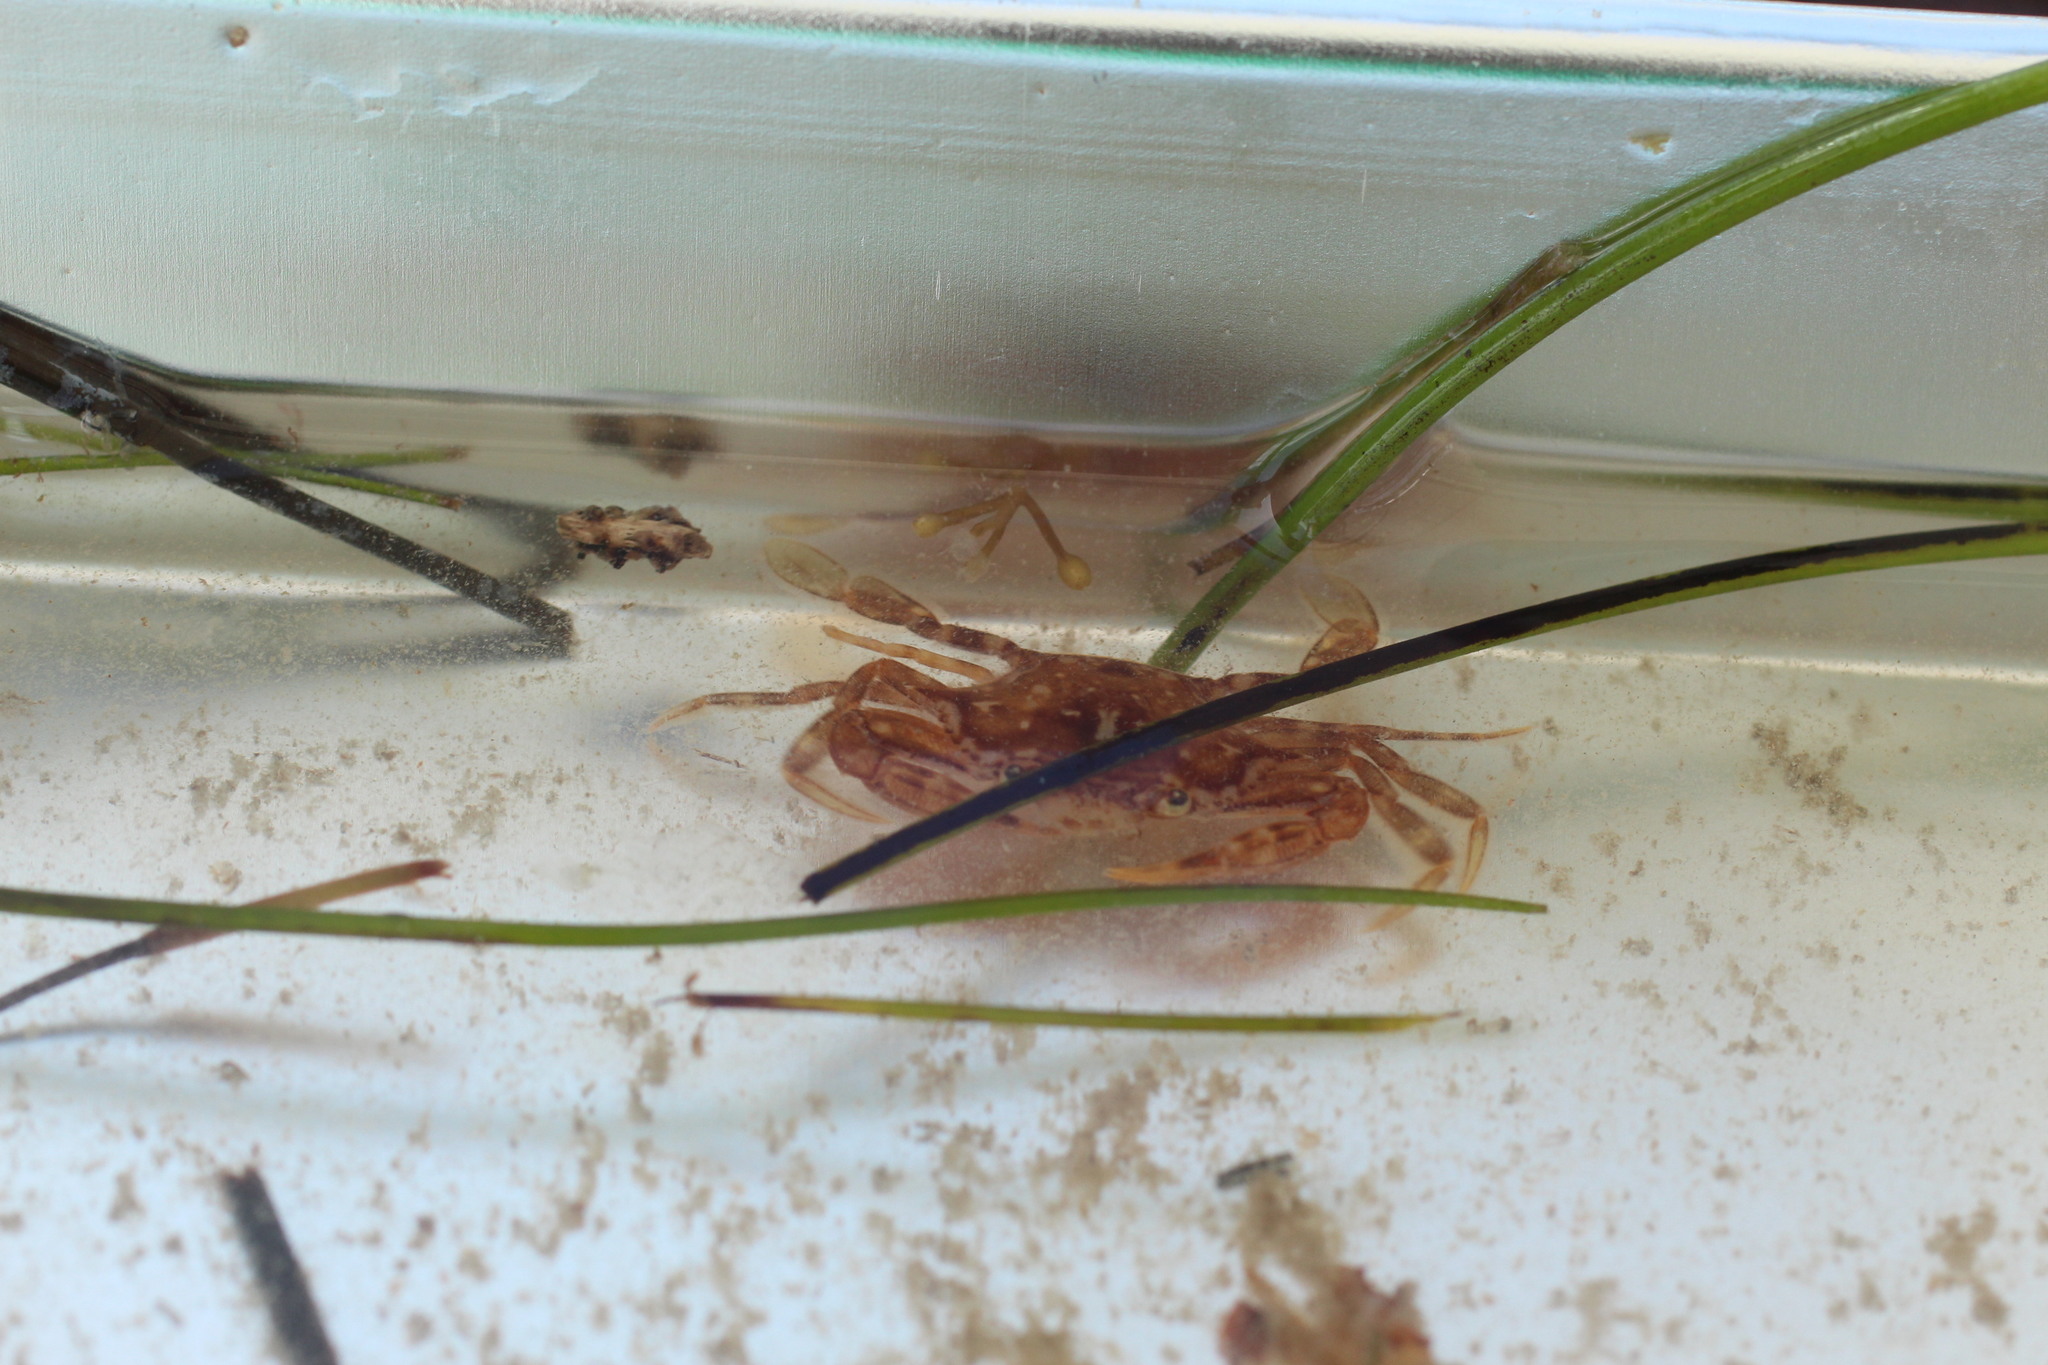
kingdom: Animalia
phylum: Arthropoda
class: Malacostraca
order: Decapoda
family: Portunidae
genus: Portunus
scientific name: Portunus sayi
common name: Sargassum crab
